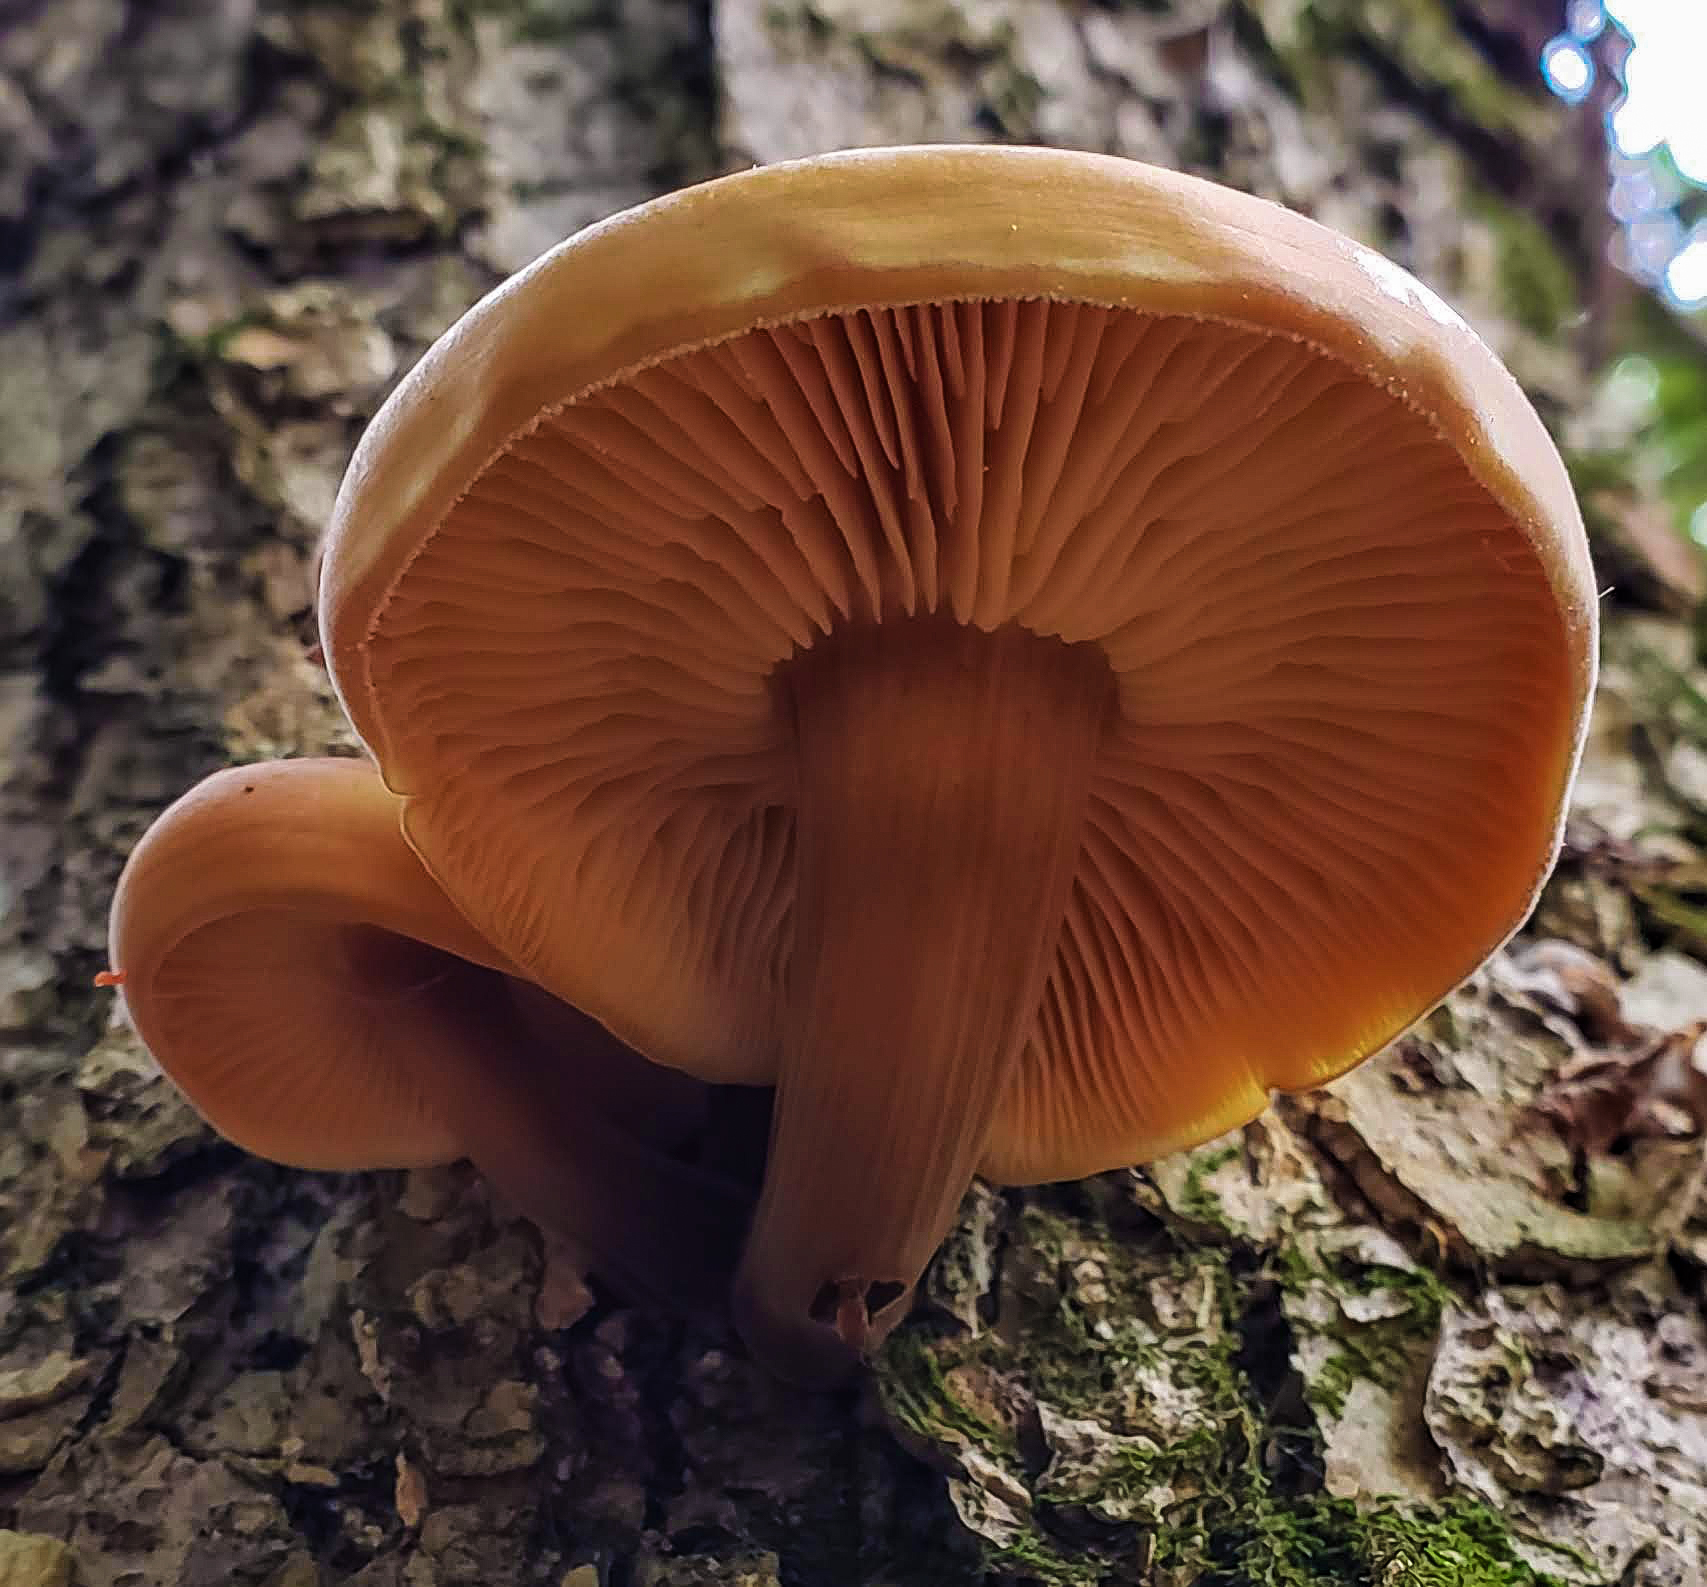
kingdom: Fungi
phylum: Basidiomycota
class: Agaricomycetes
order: Agaricales
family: Physalacriaceae
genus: Flammulina
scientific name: Flammulina velutipes
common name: Velvet shank
